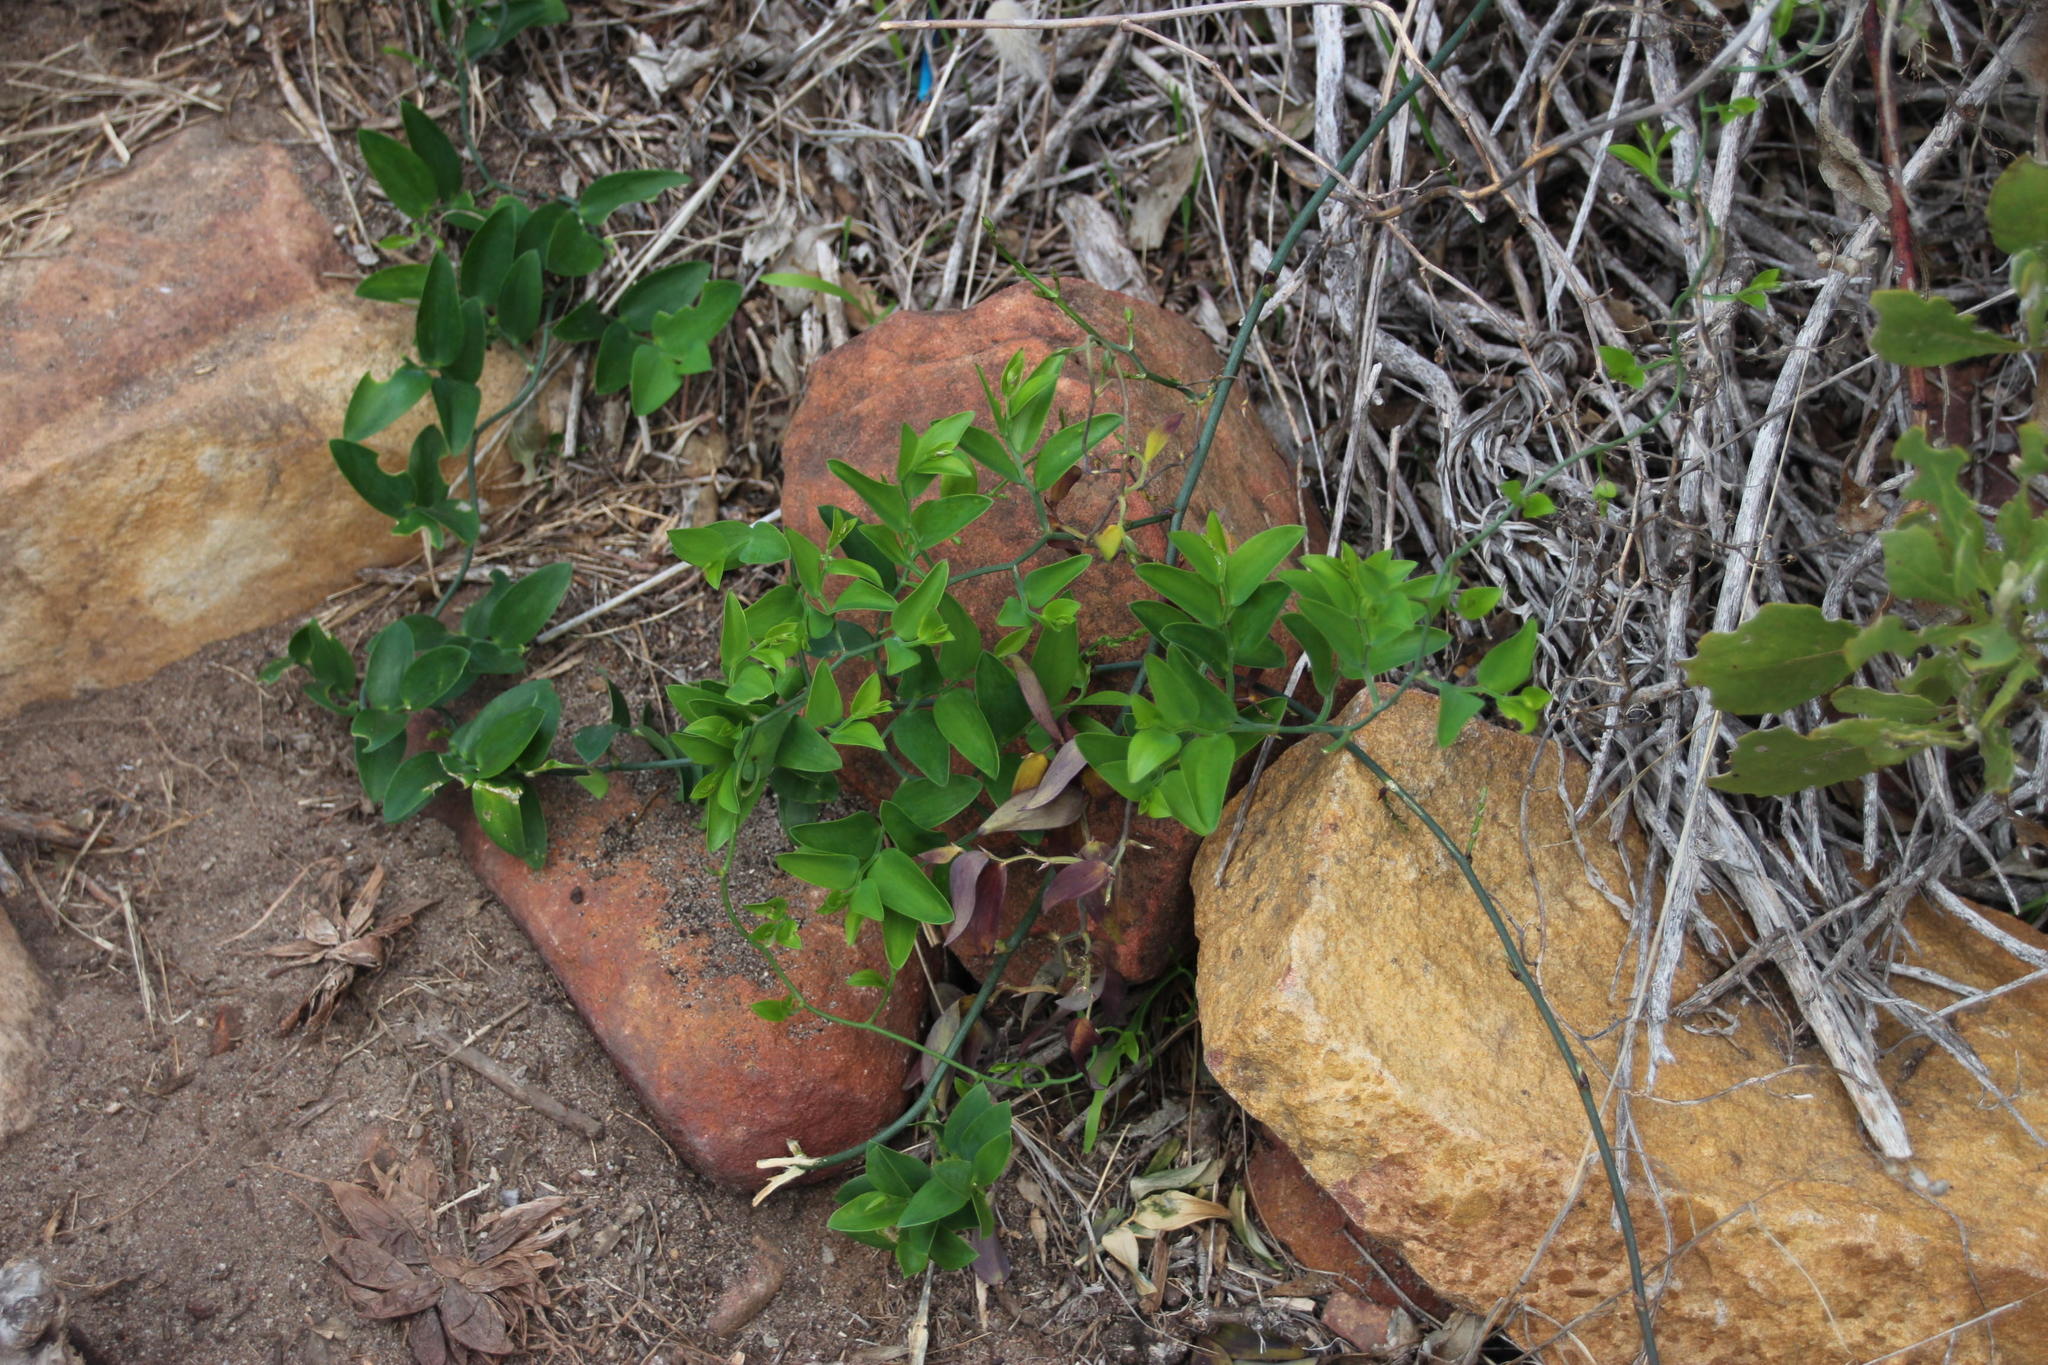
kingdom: Plantae
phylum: Tracheophyta
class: Liliopsida
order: Asparagales
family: Asparagaceae
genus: Asparagus
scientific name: Asparagus ovatus
